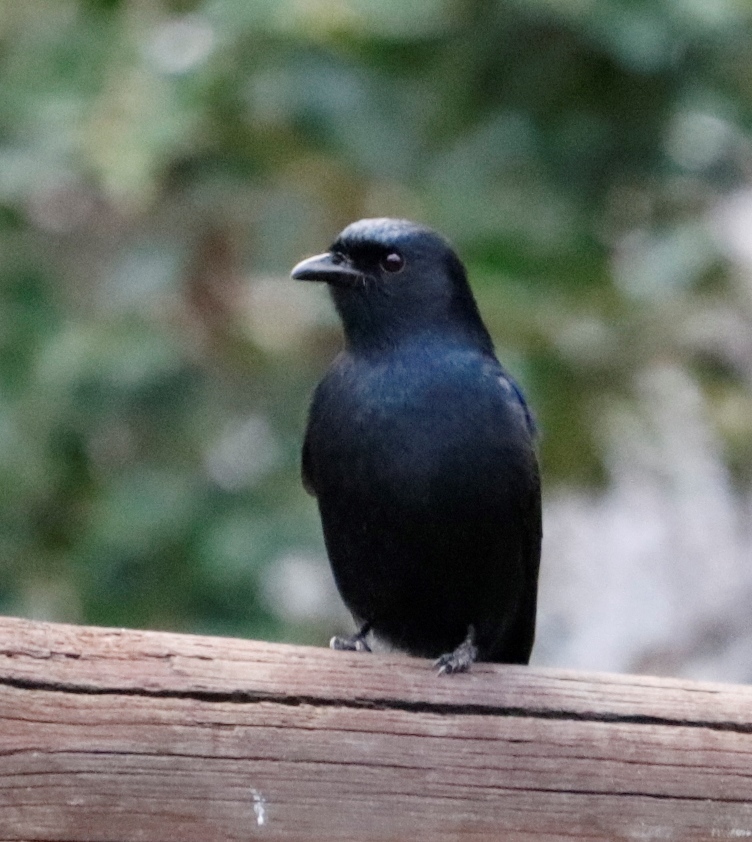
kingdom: Animalia
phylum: Chordata
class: Aves
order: Passeriformes
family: Dicruridae
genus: Dicrurus
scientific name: Dicrurus adsimilis
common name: Fork-tailed drongo
